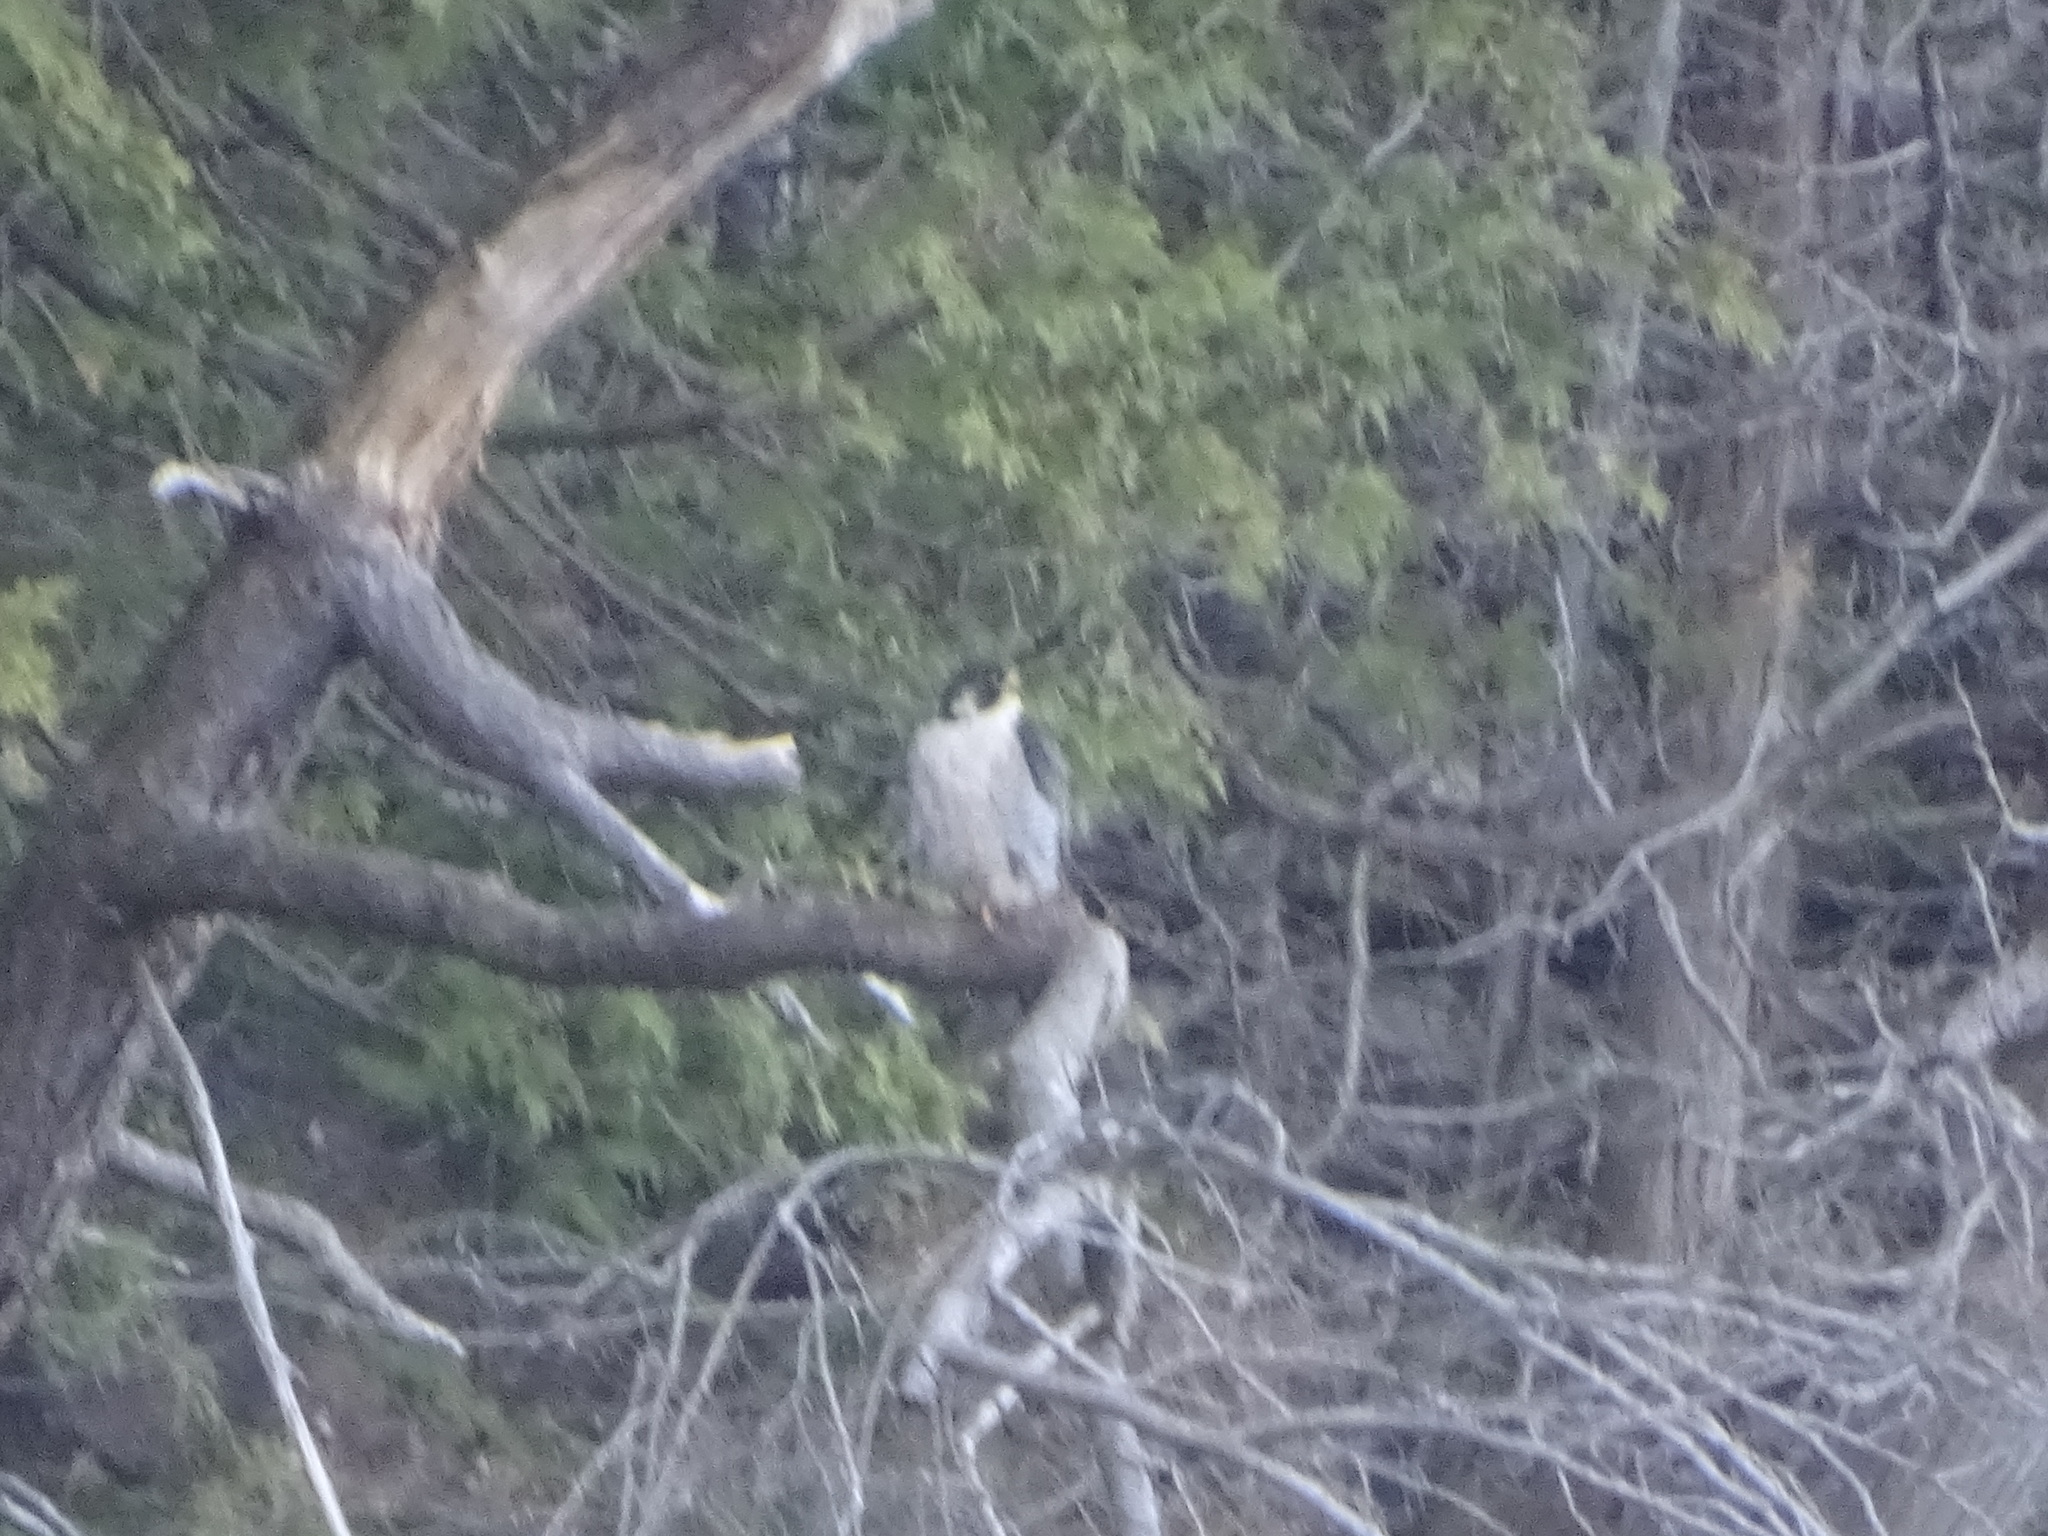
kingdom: Animalia
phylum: Chordata
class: Aves
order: Falconiformes
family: Falconidae
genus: Falco
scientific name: Falco peregrinus
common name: Peregrine falcon
